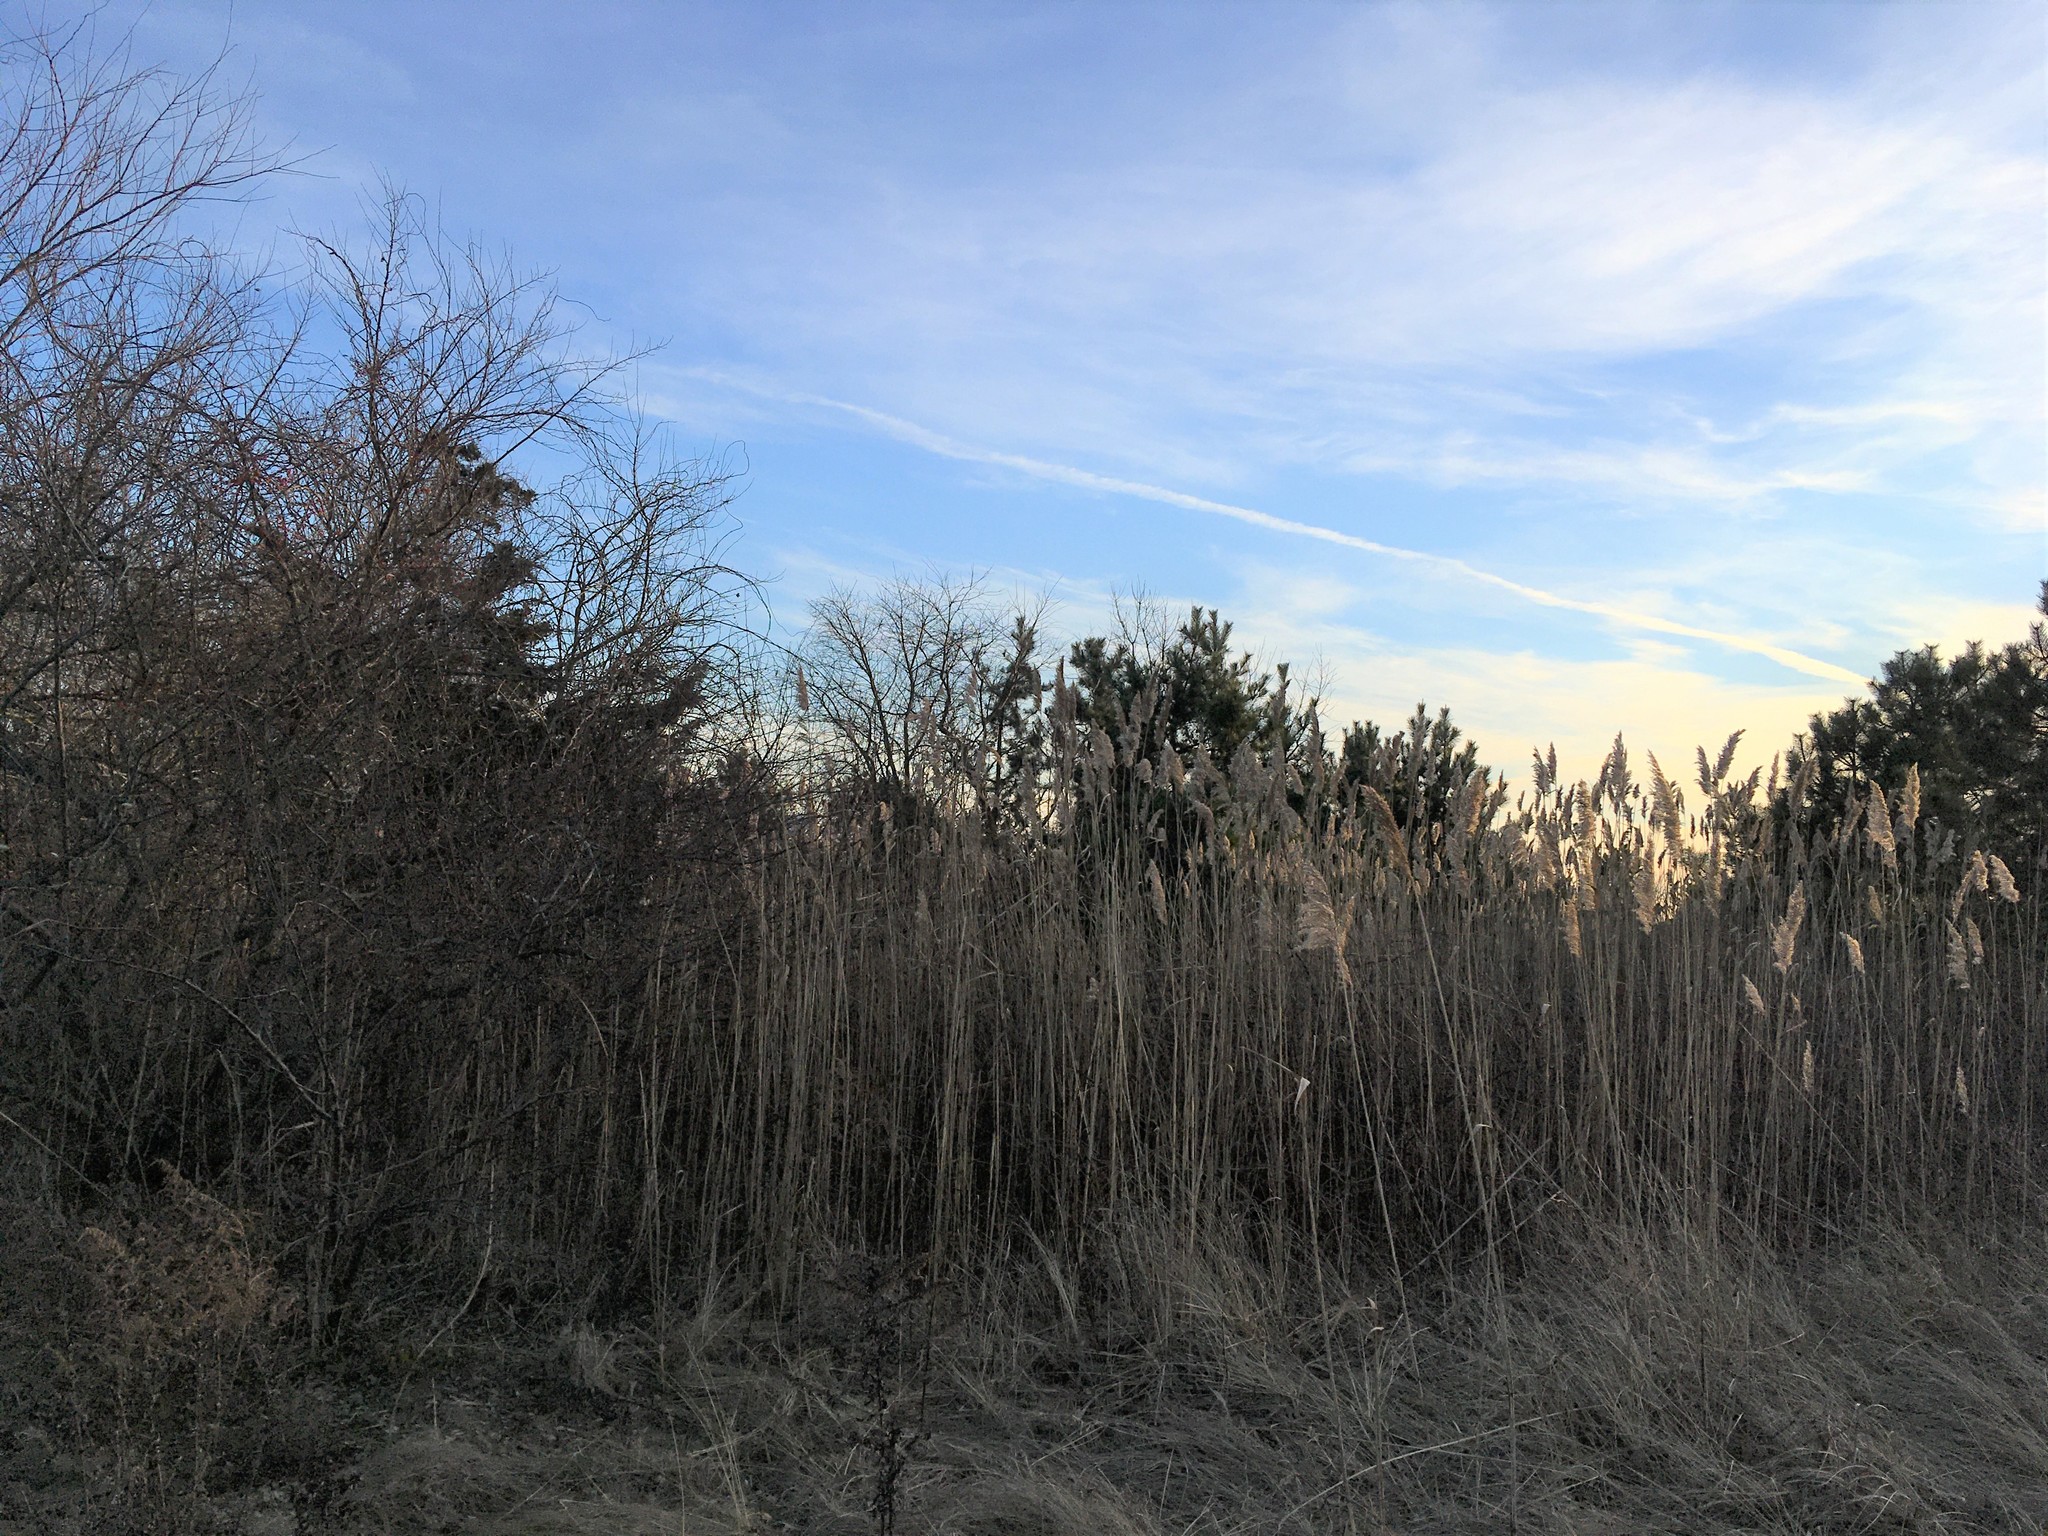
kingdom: Plantae
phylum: Tracheophyta
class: Liliopsida
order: Poales
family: Poaceae
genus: Phragmites
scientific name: Phragmites australis
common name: Common reed
